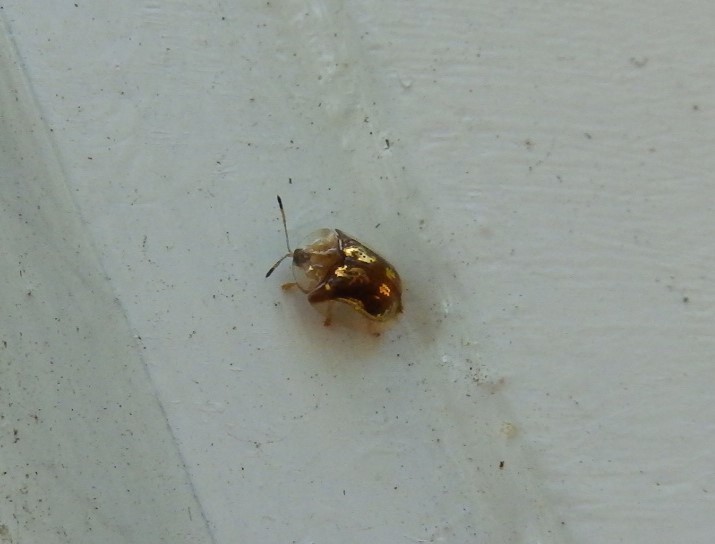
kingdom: Animalia
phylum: Arthropoda
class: Insecta
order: Coleoptera
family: Chrysomelidae
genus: Deloyala
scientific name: Deloyala guttata
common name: Mottled tortoise beetle
